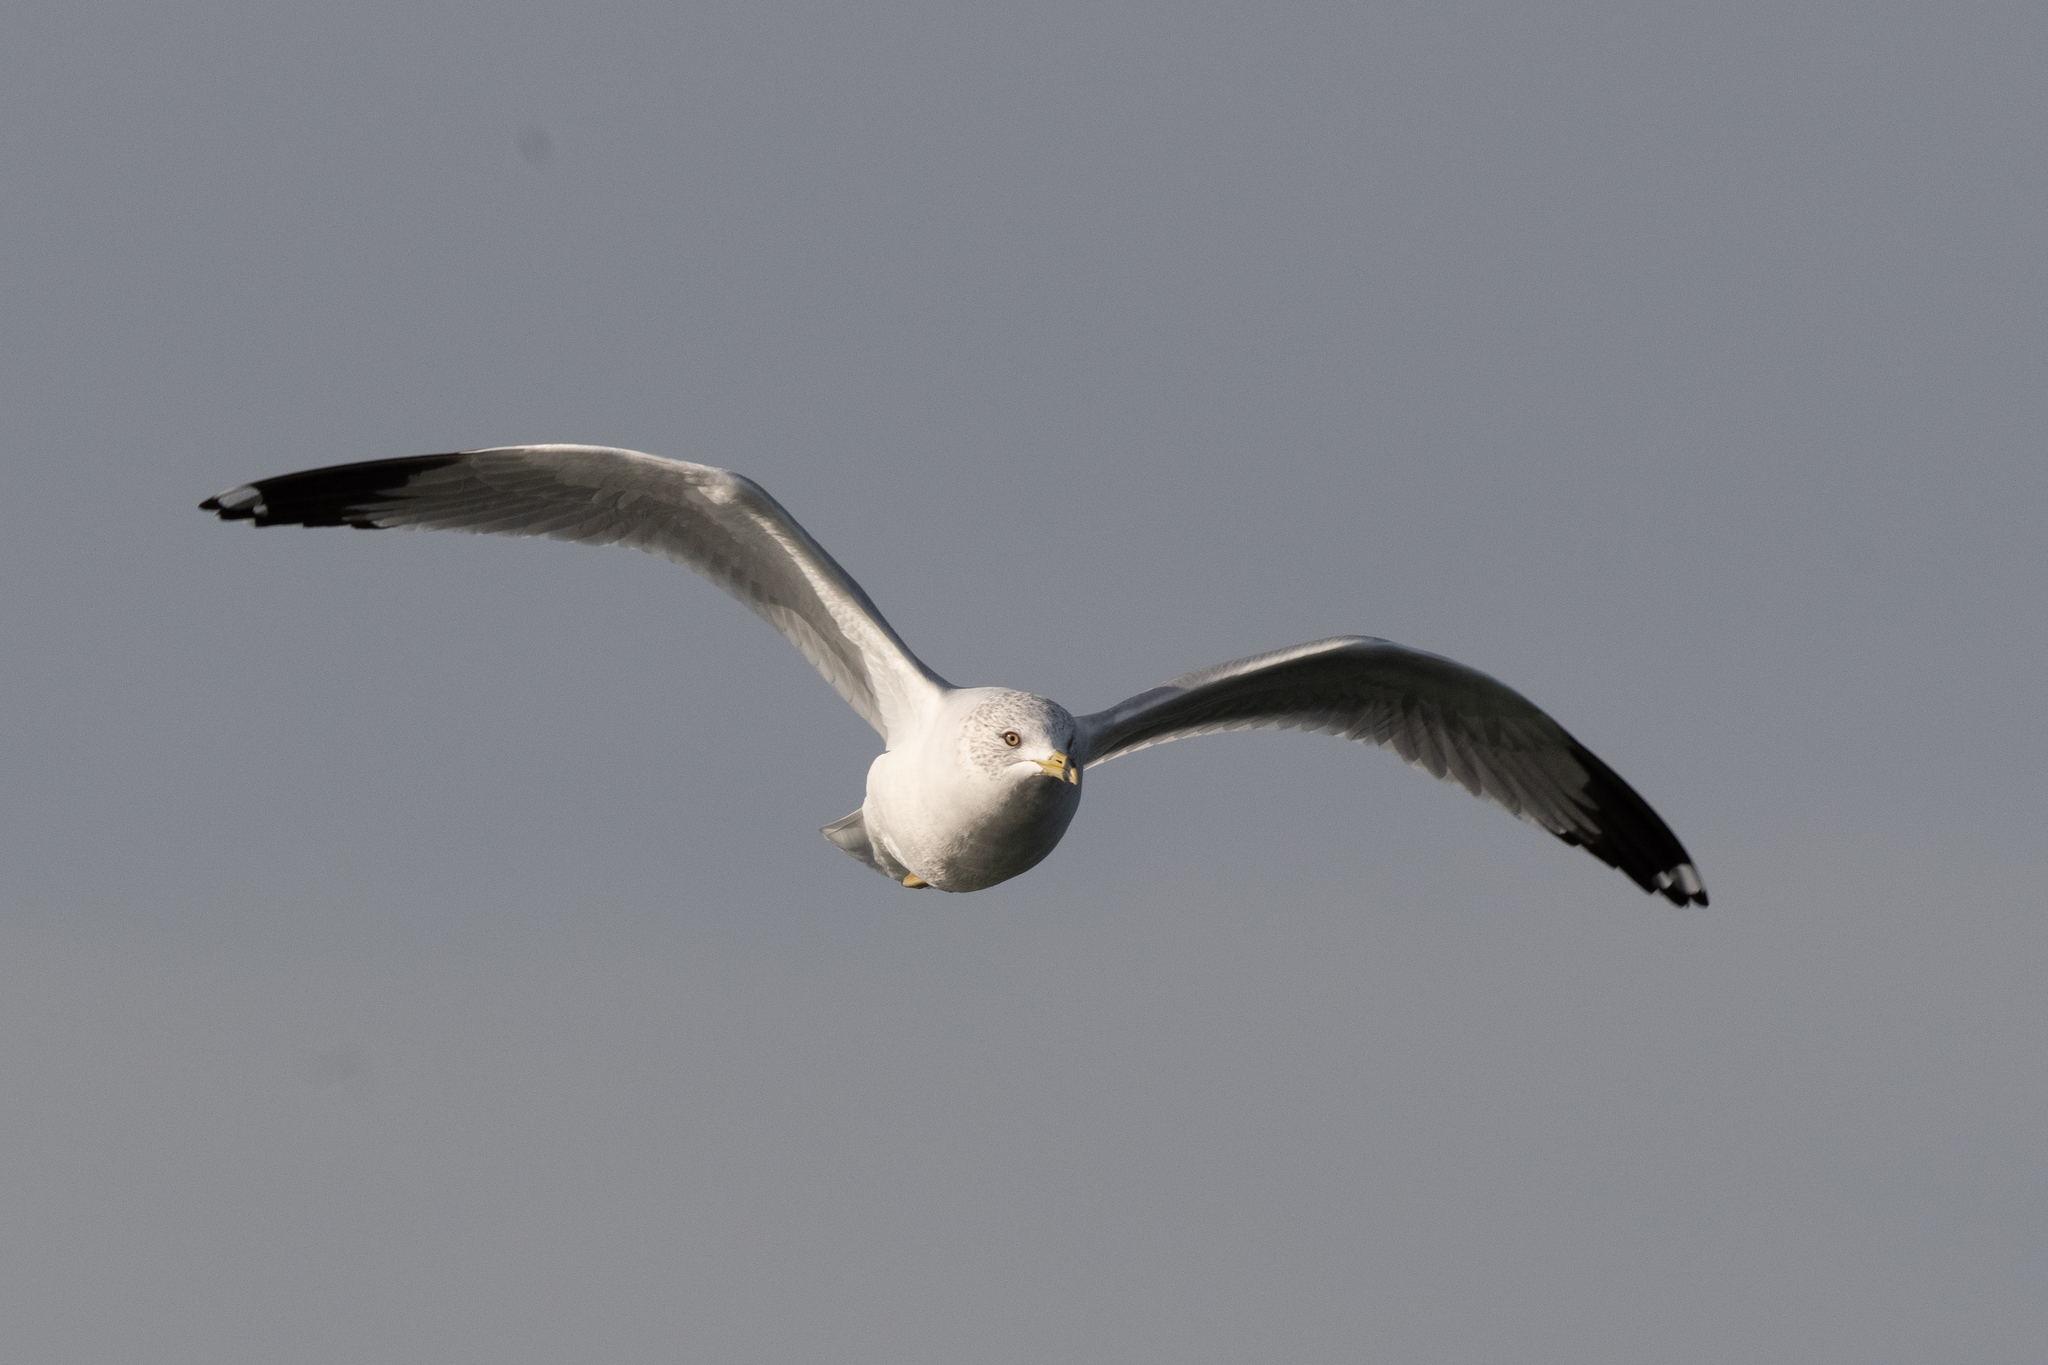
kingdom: Animalia
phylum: Chordata
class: Aves
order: Charadriiformes
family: Laridae
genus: Larus
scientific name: Larus delawarensis
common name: Ring-billed gull
